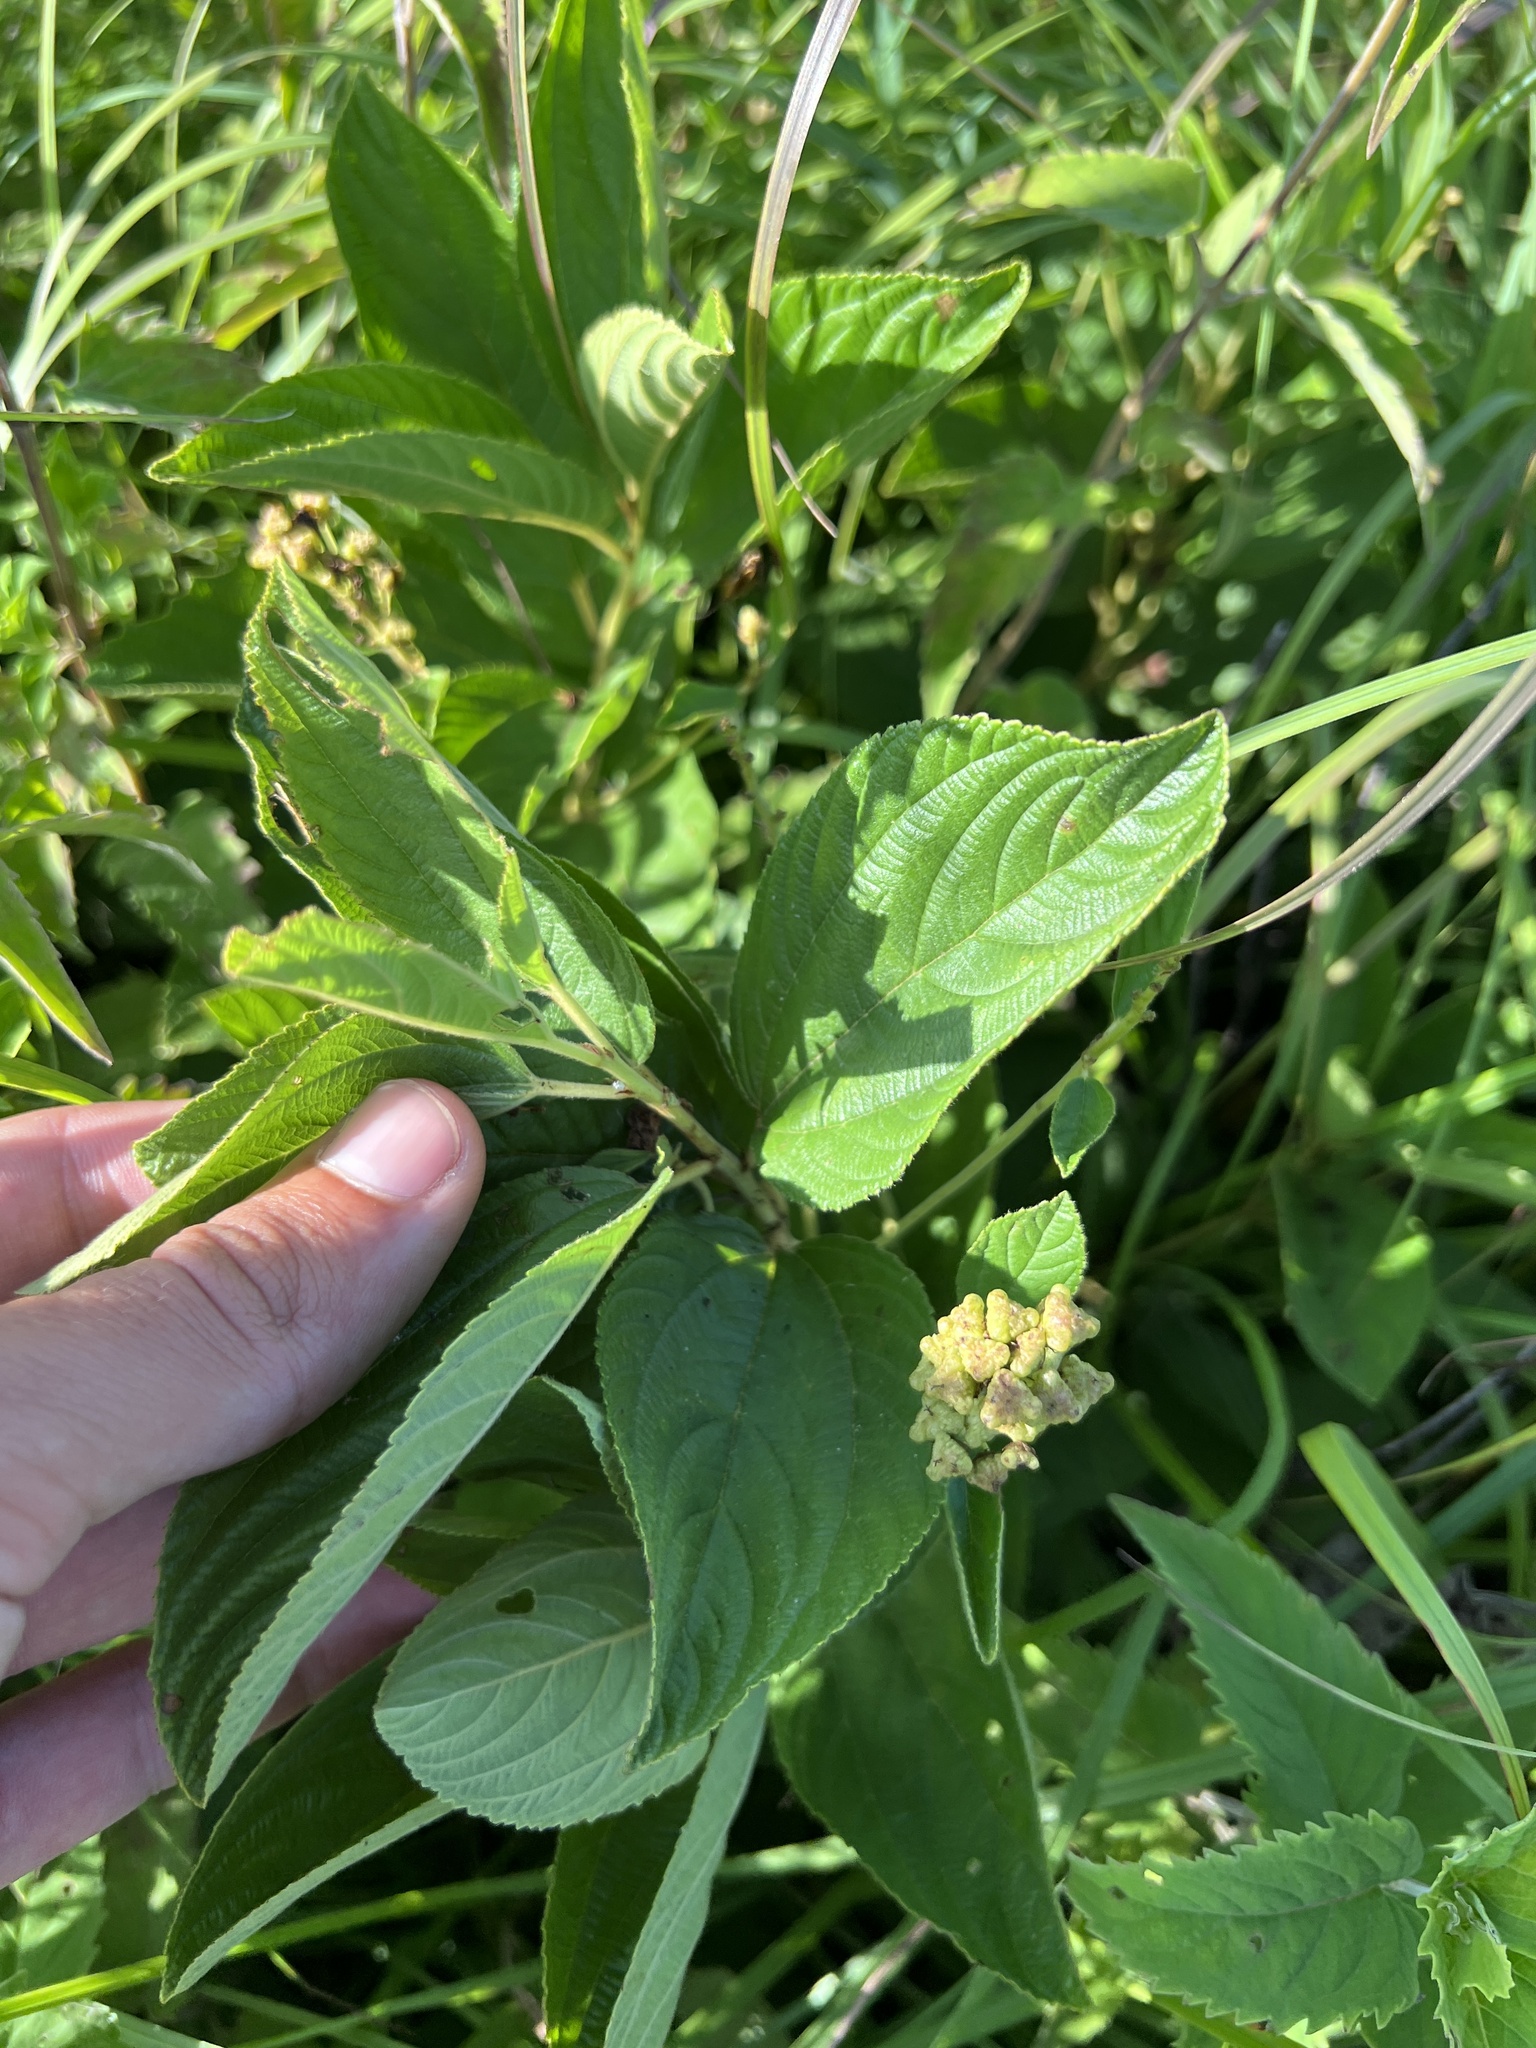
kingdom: Plantae
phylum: Tracheophyta
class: Magnoliopsida
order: Rosales
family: Rhamnaceae
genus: Ceanothus
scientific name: Ceanothus americanus
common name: Redroot
